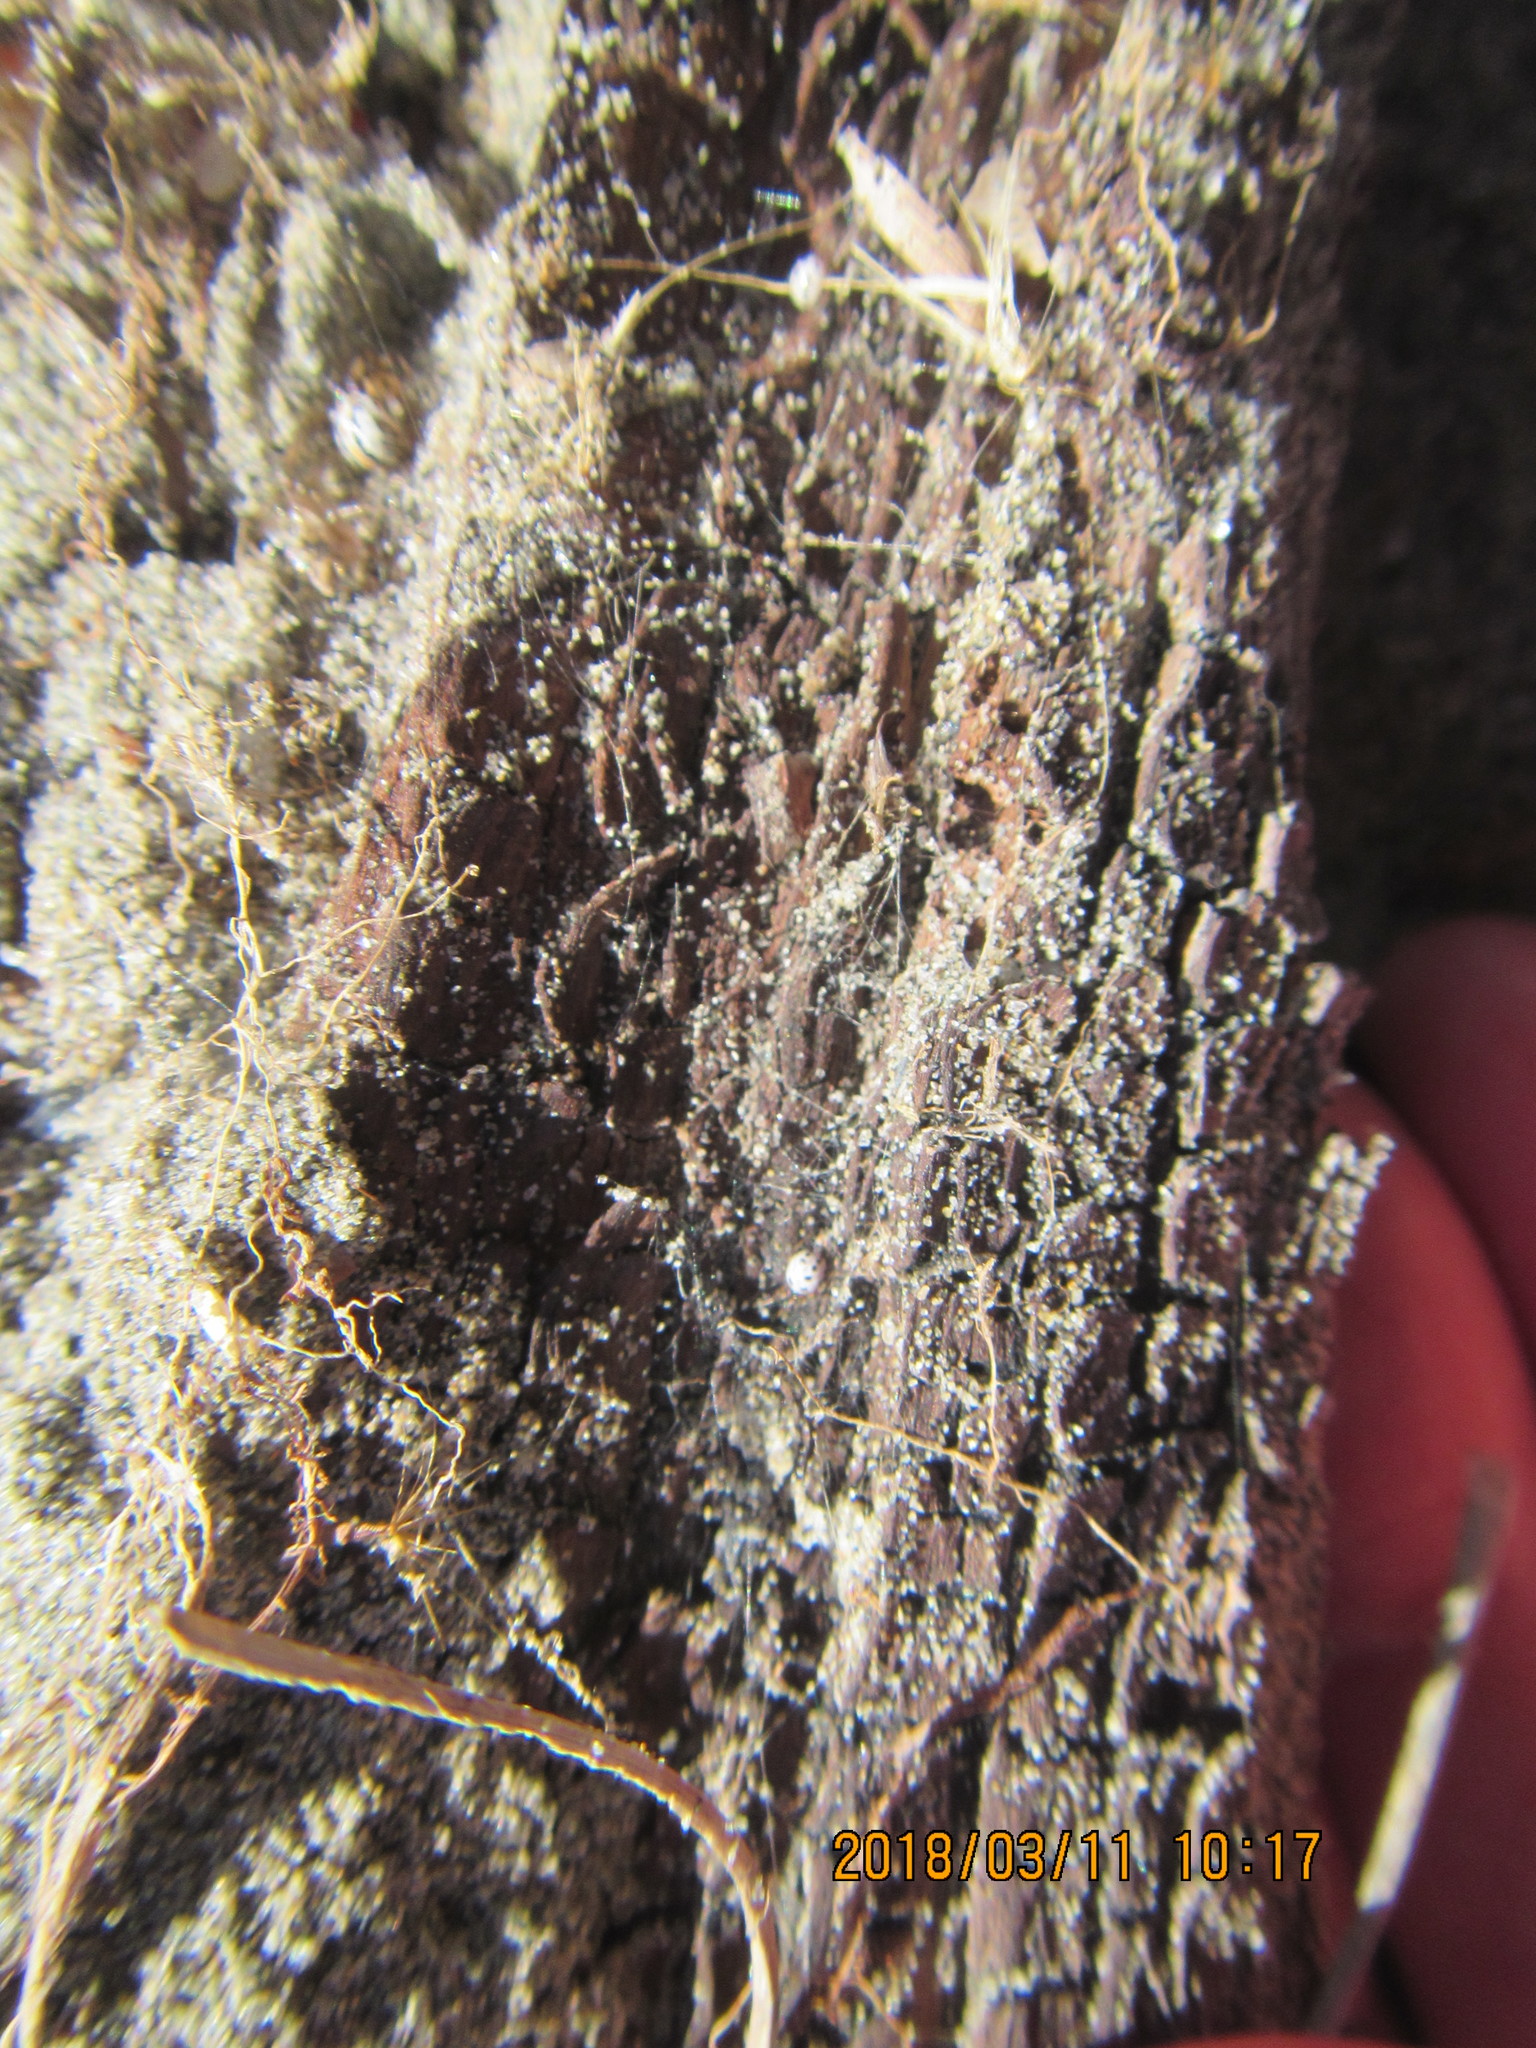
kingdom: Animalia
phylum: Arthropoda
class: Arachnida
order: Araneae
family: Theridiidae
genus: Latrodectus
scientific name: Latrodectus katipo
